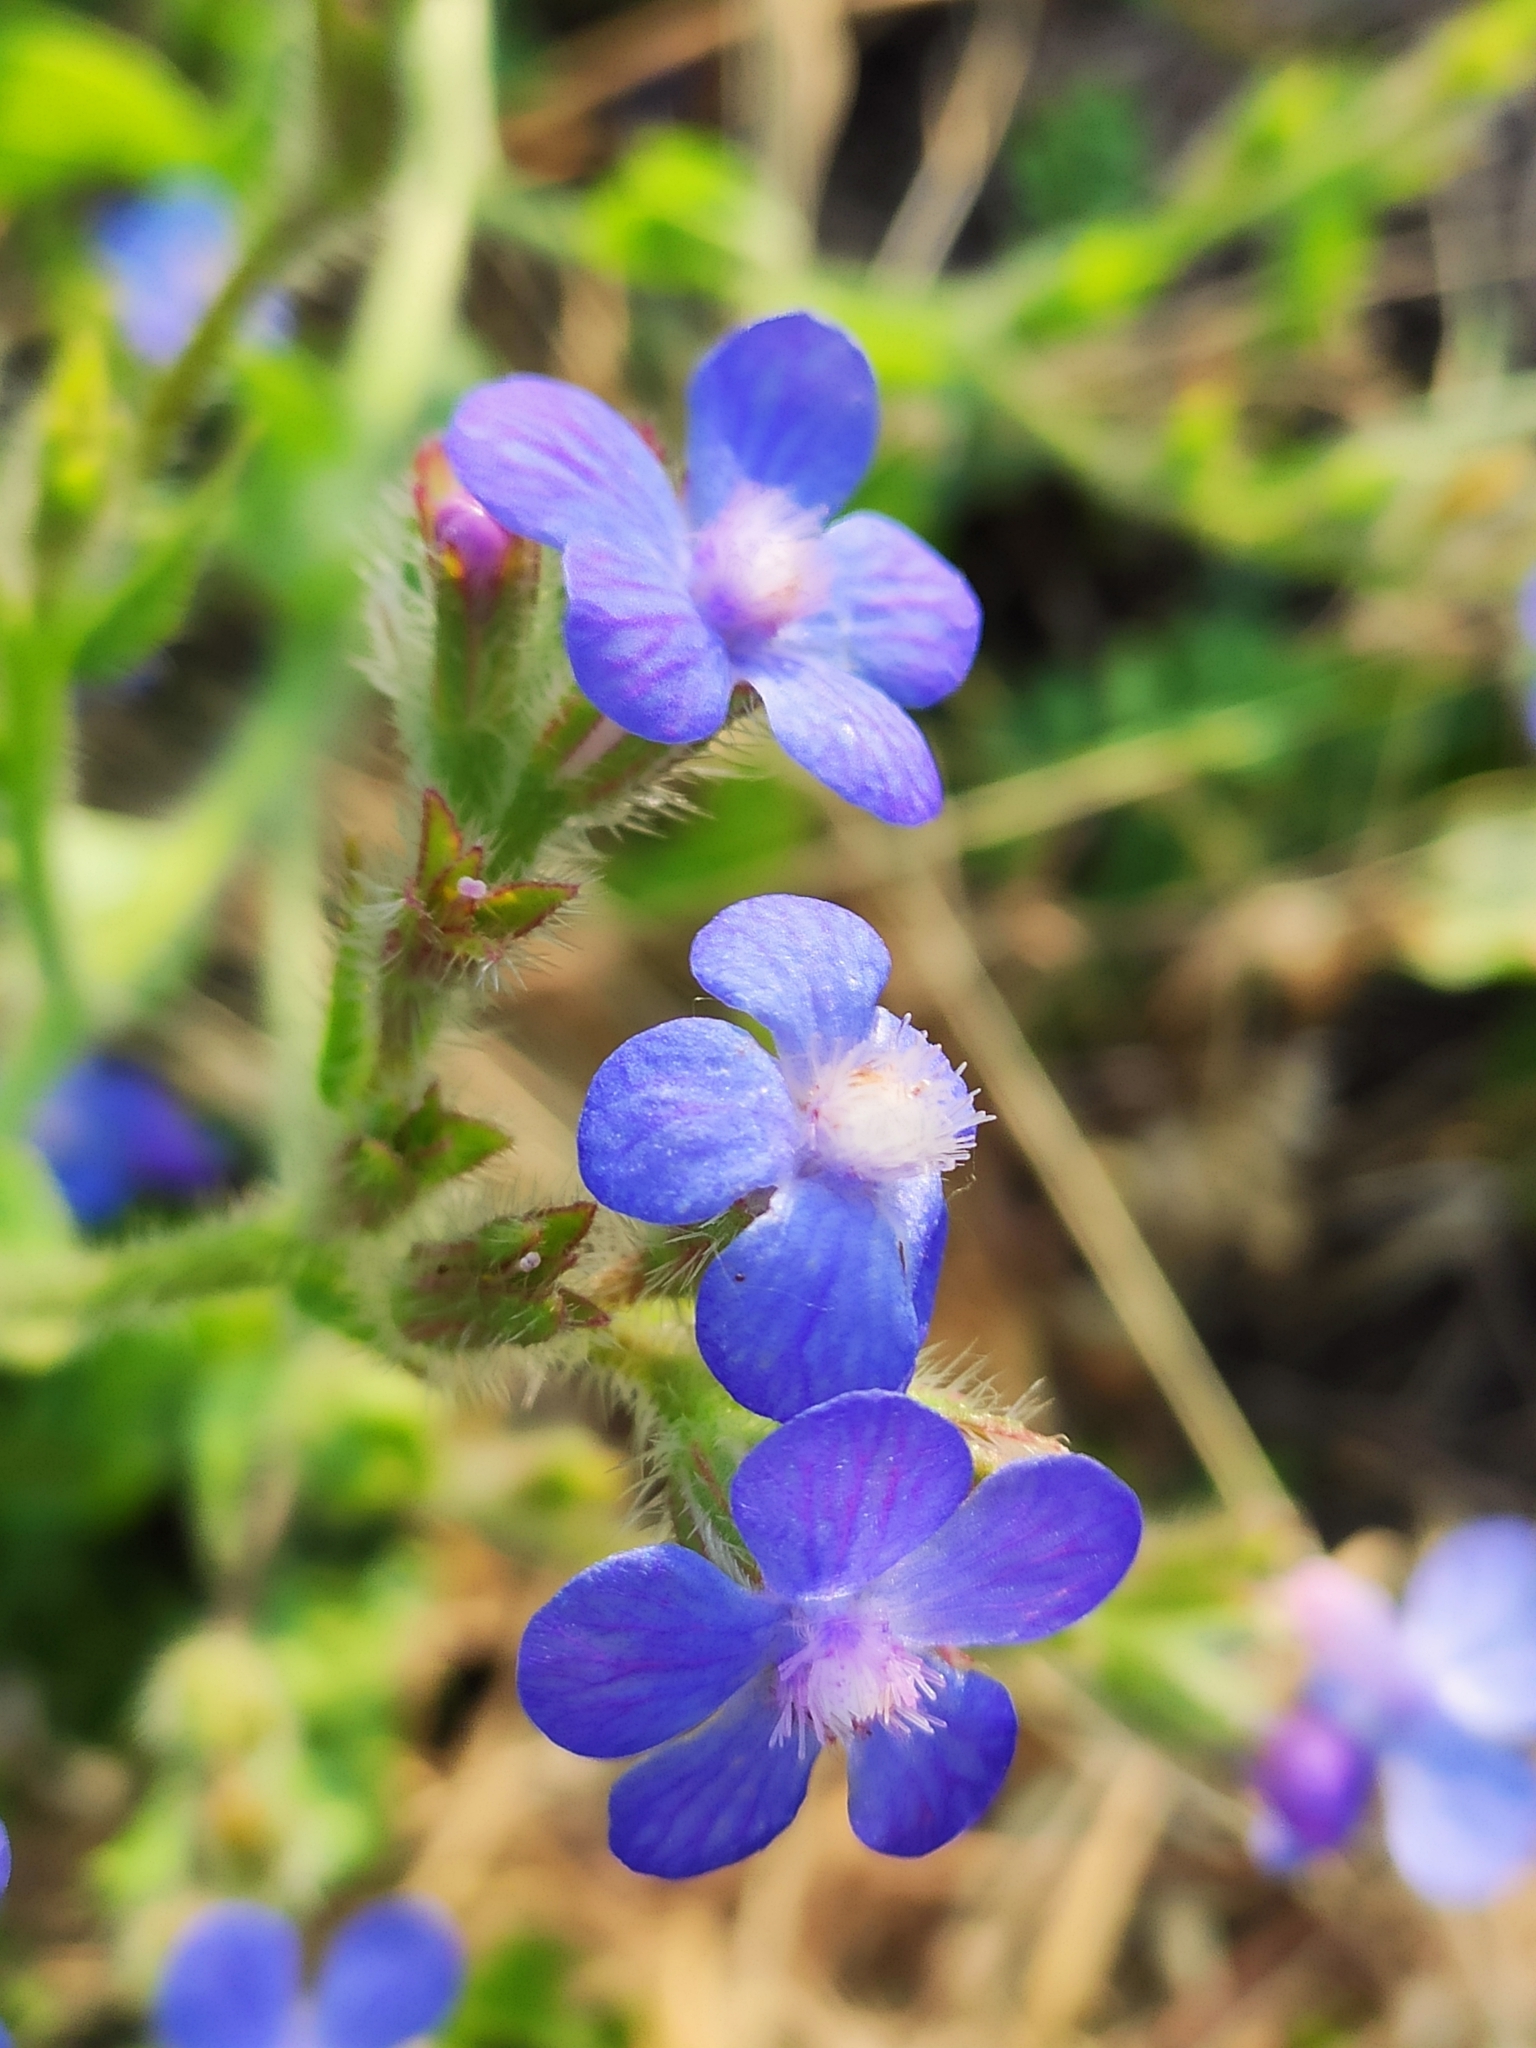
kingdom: Plantae
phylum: Tracheophyta
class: Magnoliopsida
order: Boraginales
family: Boraginaceae
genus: Anchusa
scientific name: Anchusa azurea
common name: Garden anchusa
